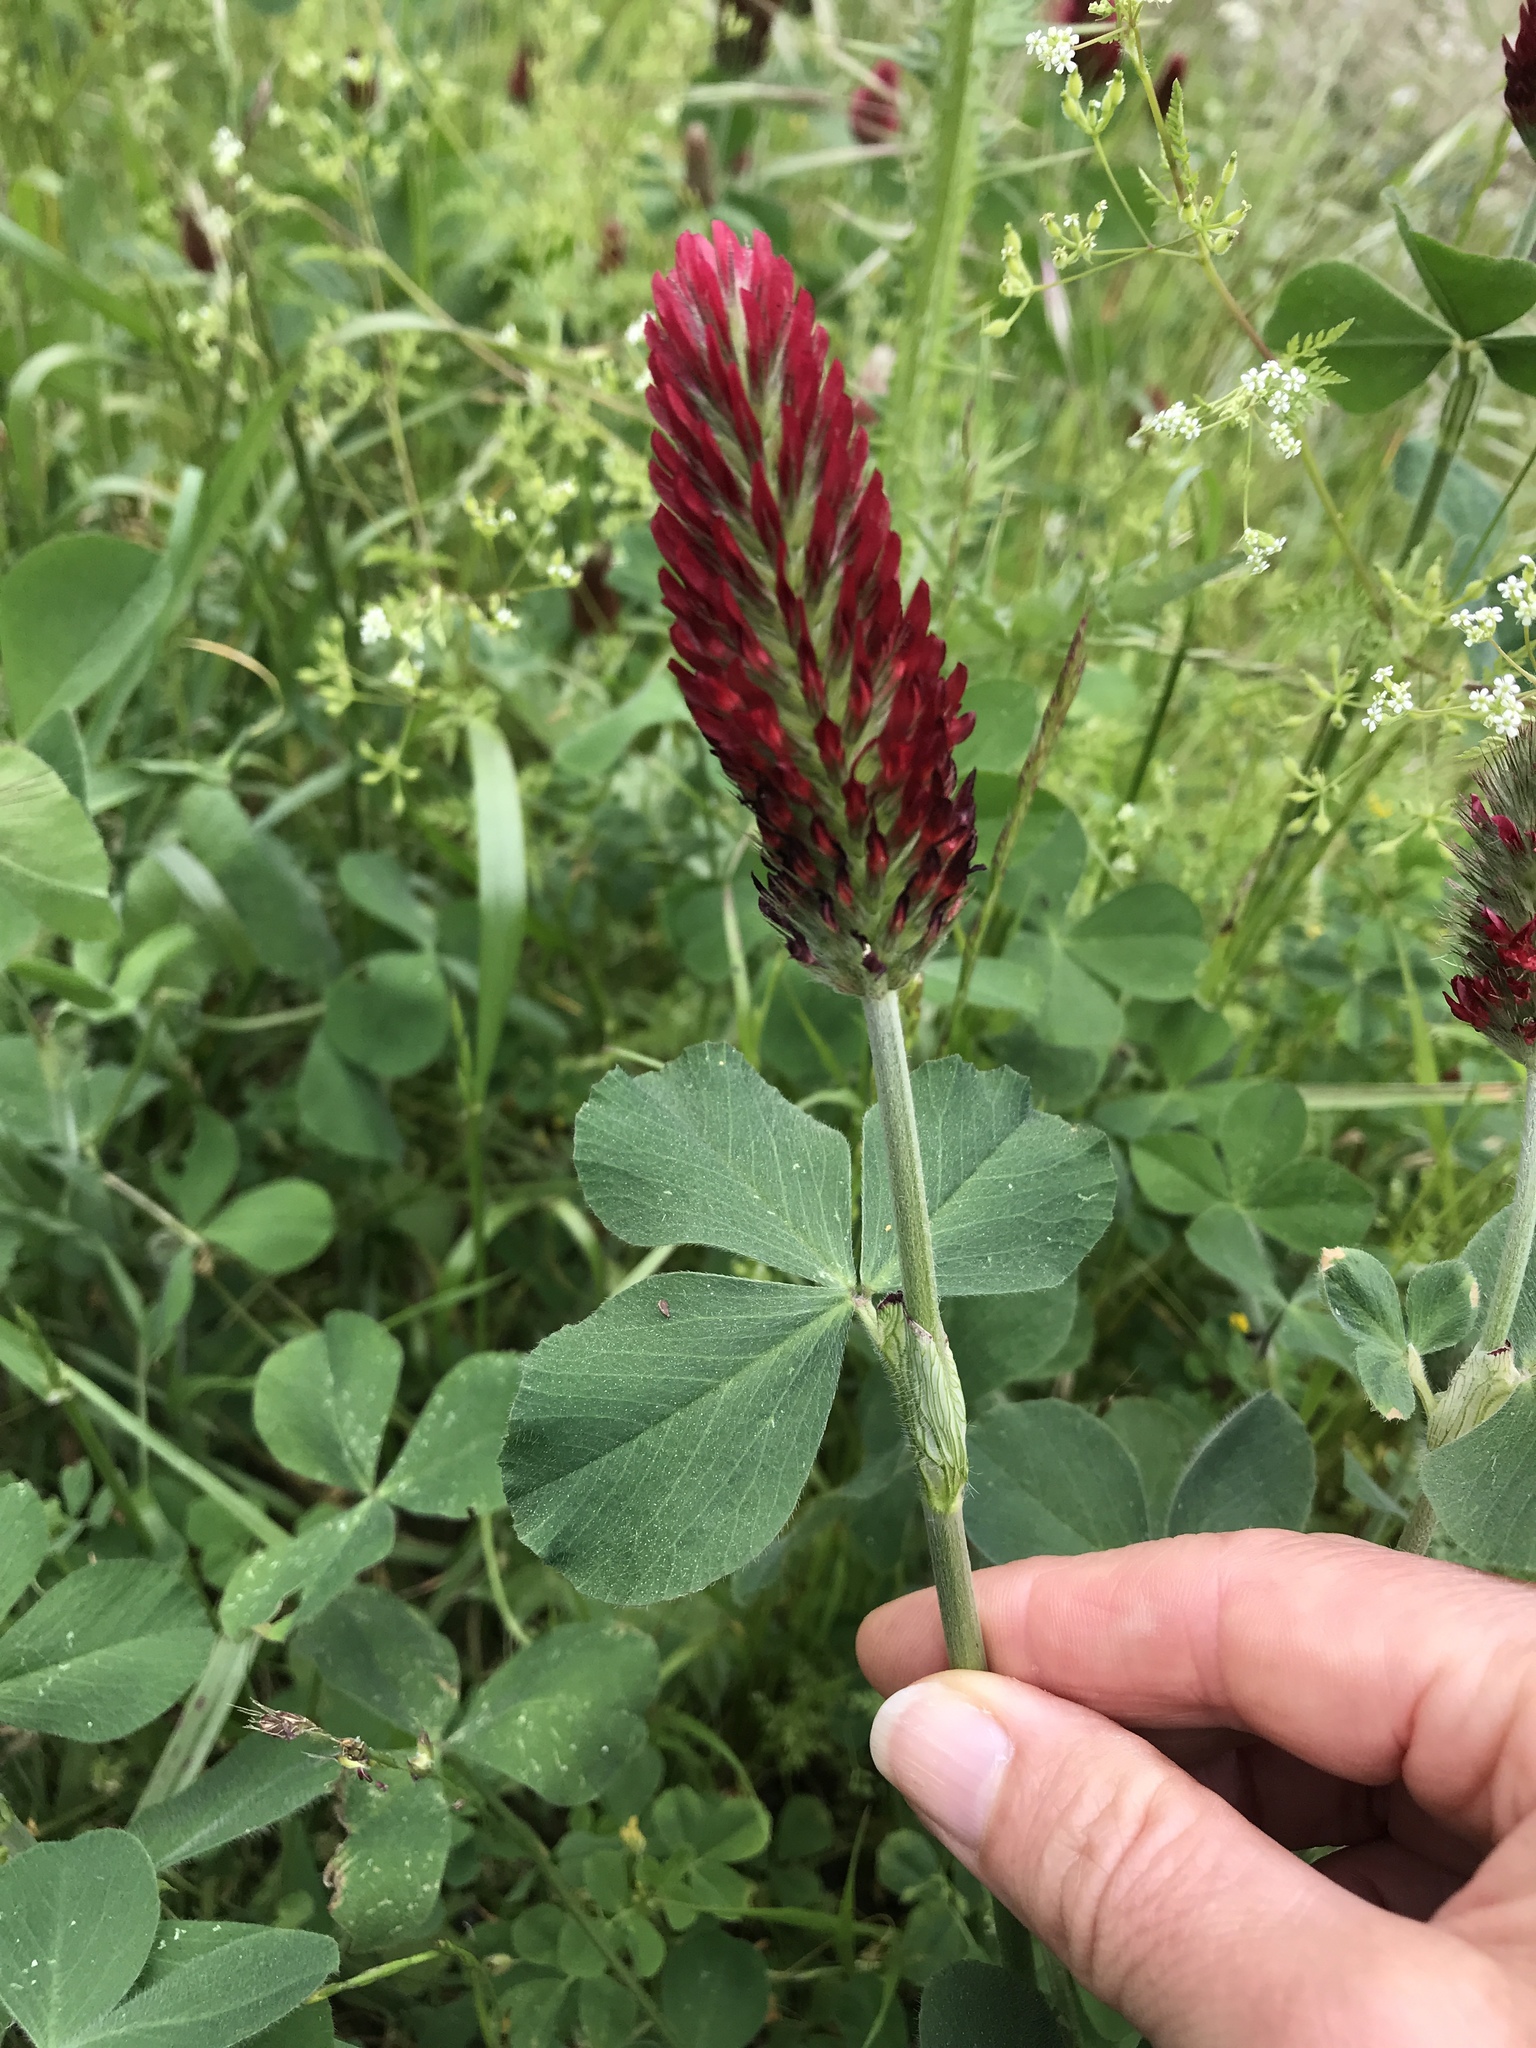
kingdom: Plantae
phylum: Tracheophyta
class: Magnoliopsida
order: Fabales
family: Fabaceae
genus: Trifolium
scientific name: Trifolium incarnatum
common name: Crimson clover
